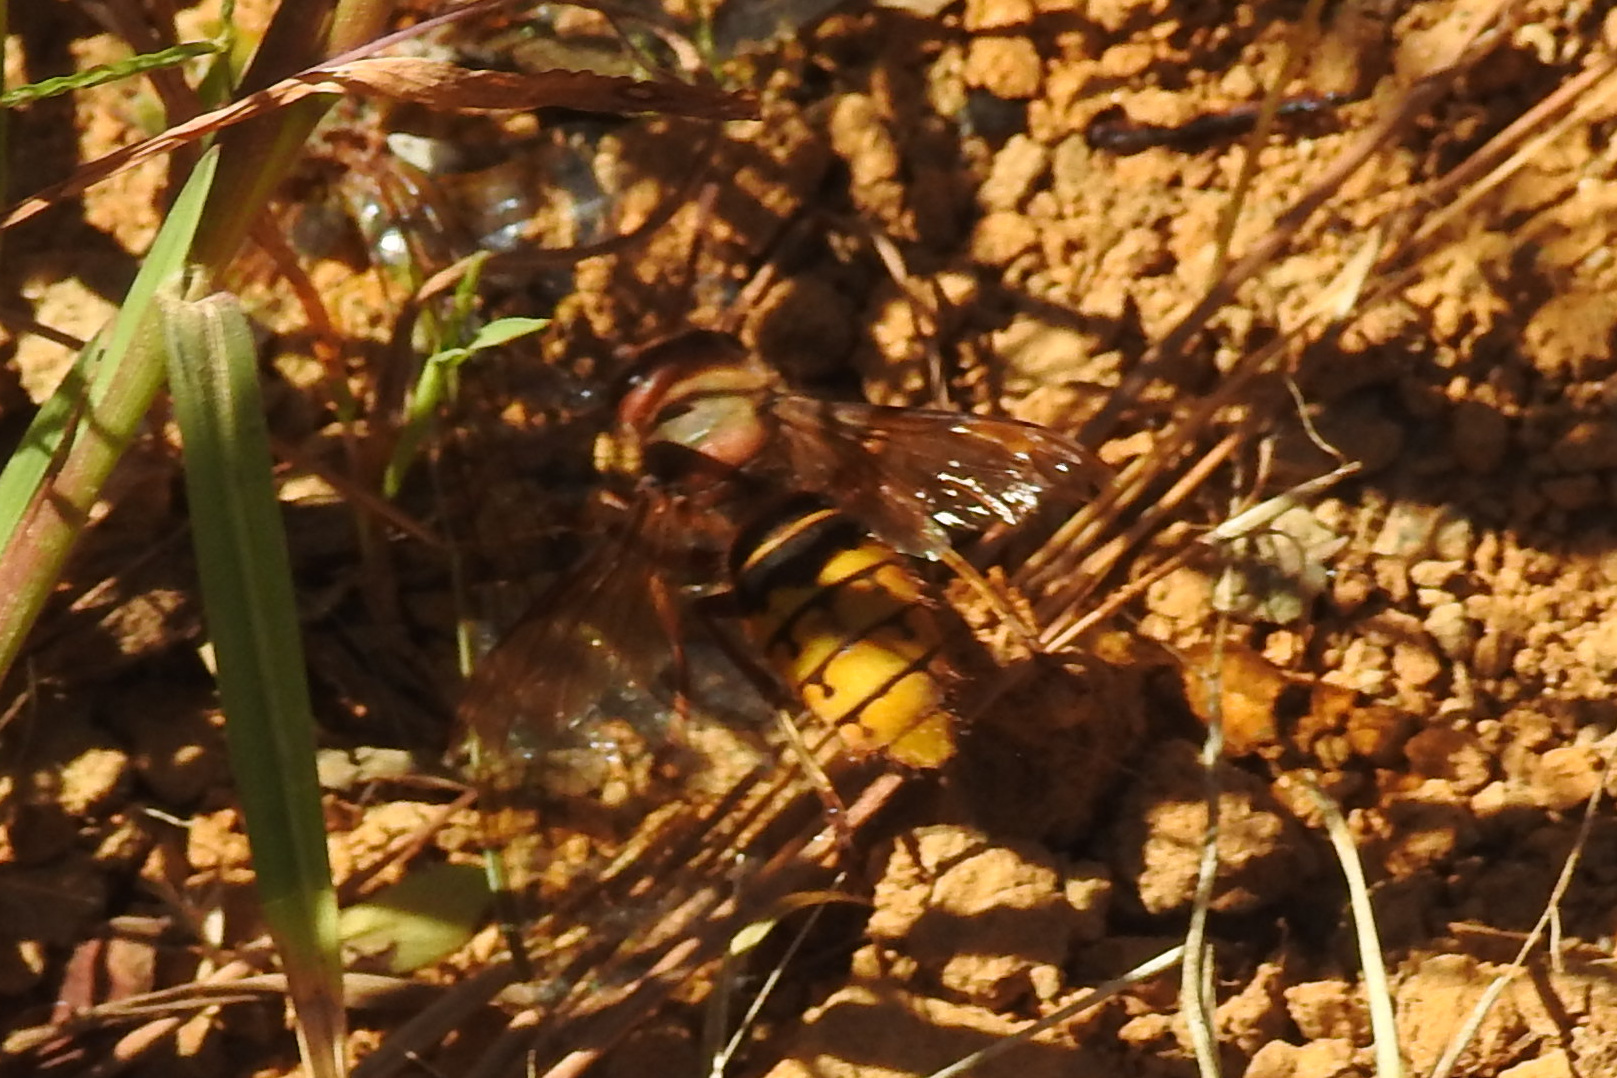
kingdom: Animalia
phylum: Arthropoda
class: Insecta
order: Hymenoptera
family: Vespidae
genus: Vespa
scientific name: Vespa crabro
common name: Hornet
